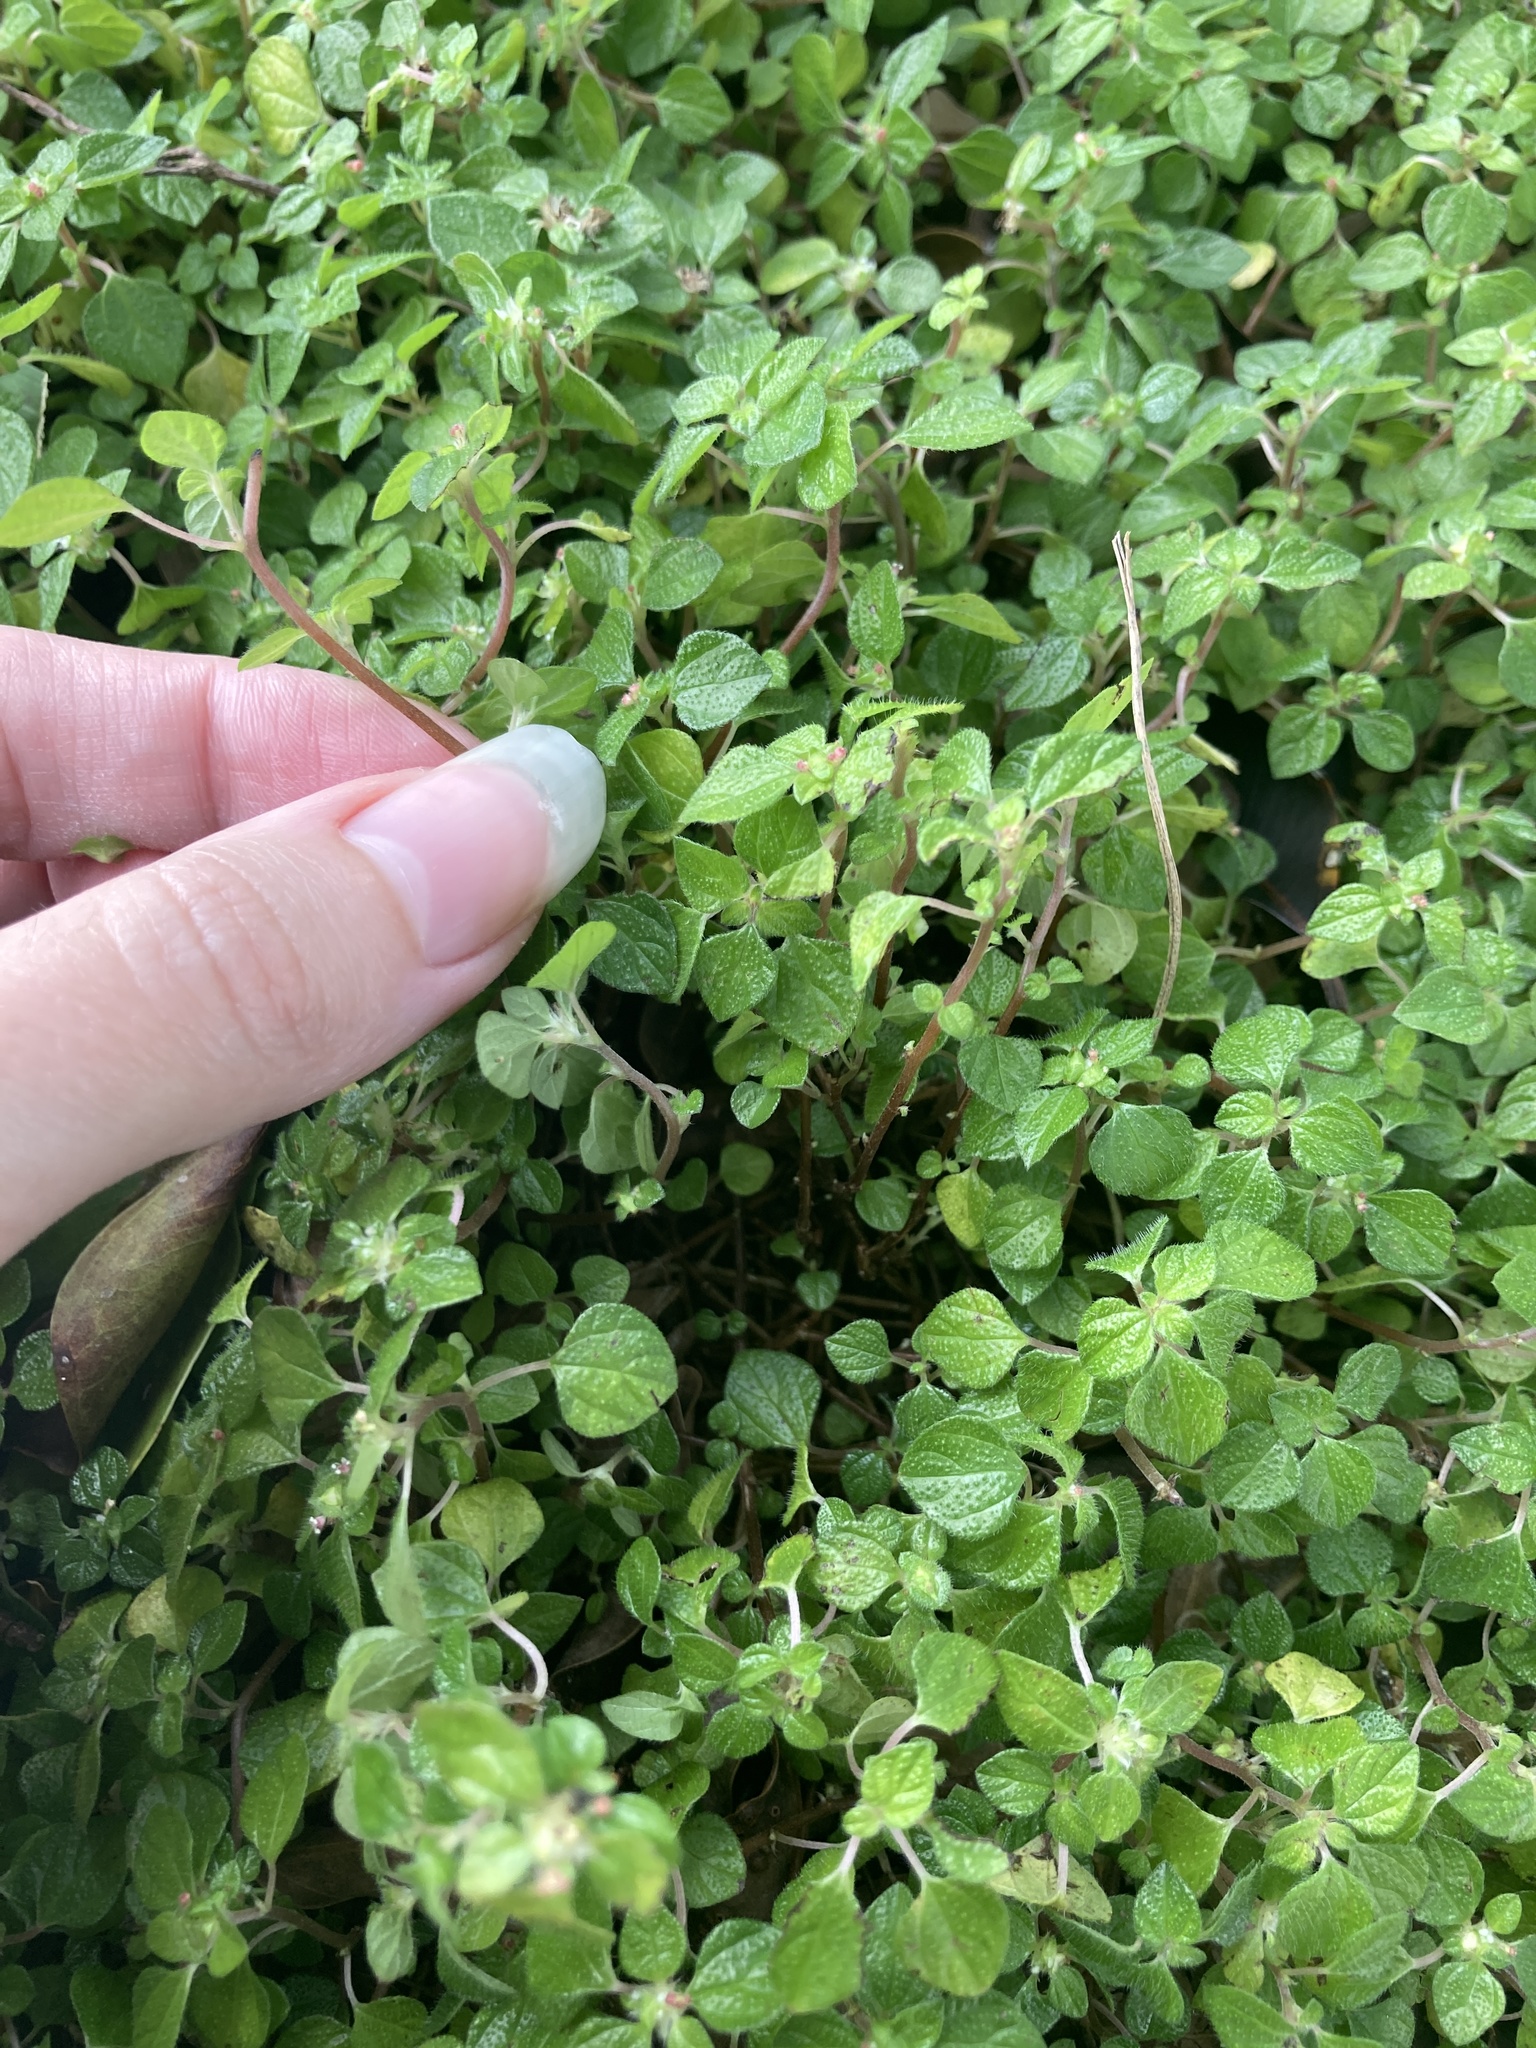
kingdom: Plantae
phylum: Tracheophyta
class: Magnoliopsida
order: Rosales
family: Urticaceae
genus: Rousselia
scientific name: Rousselia humilis
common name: Shineseed
